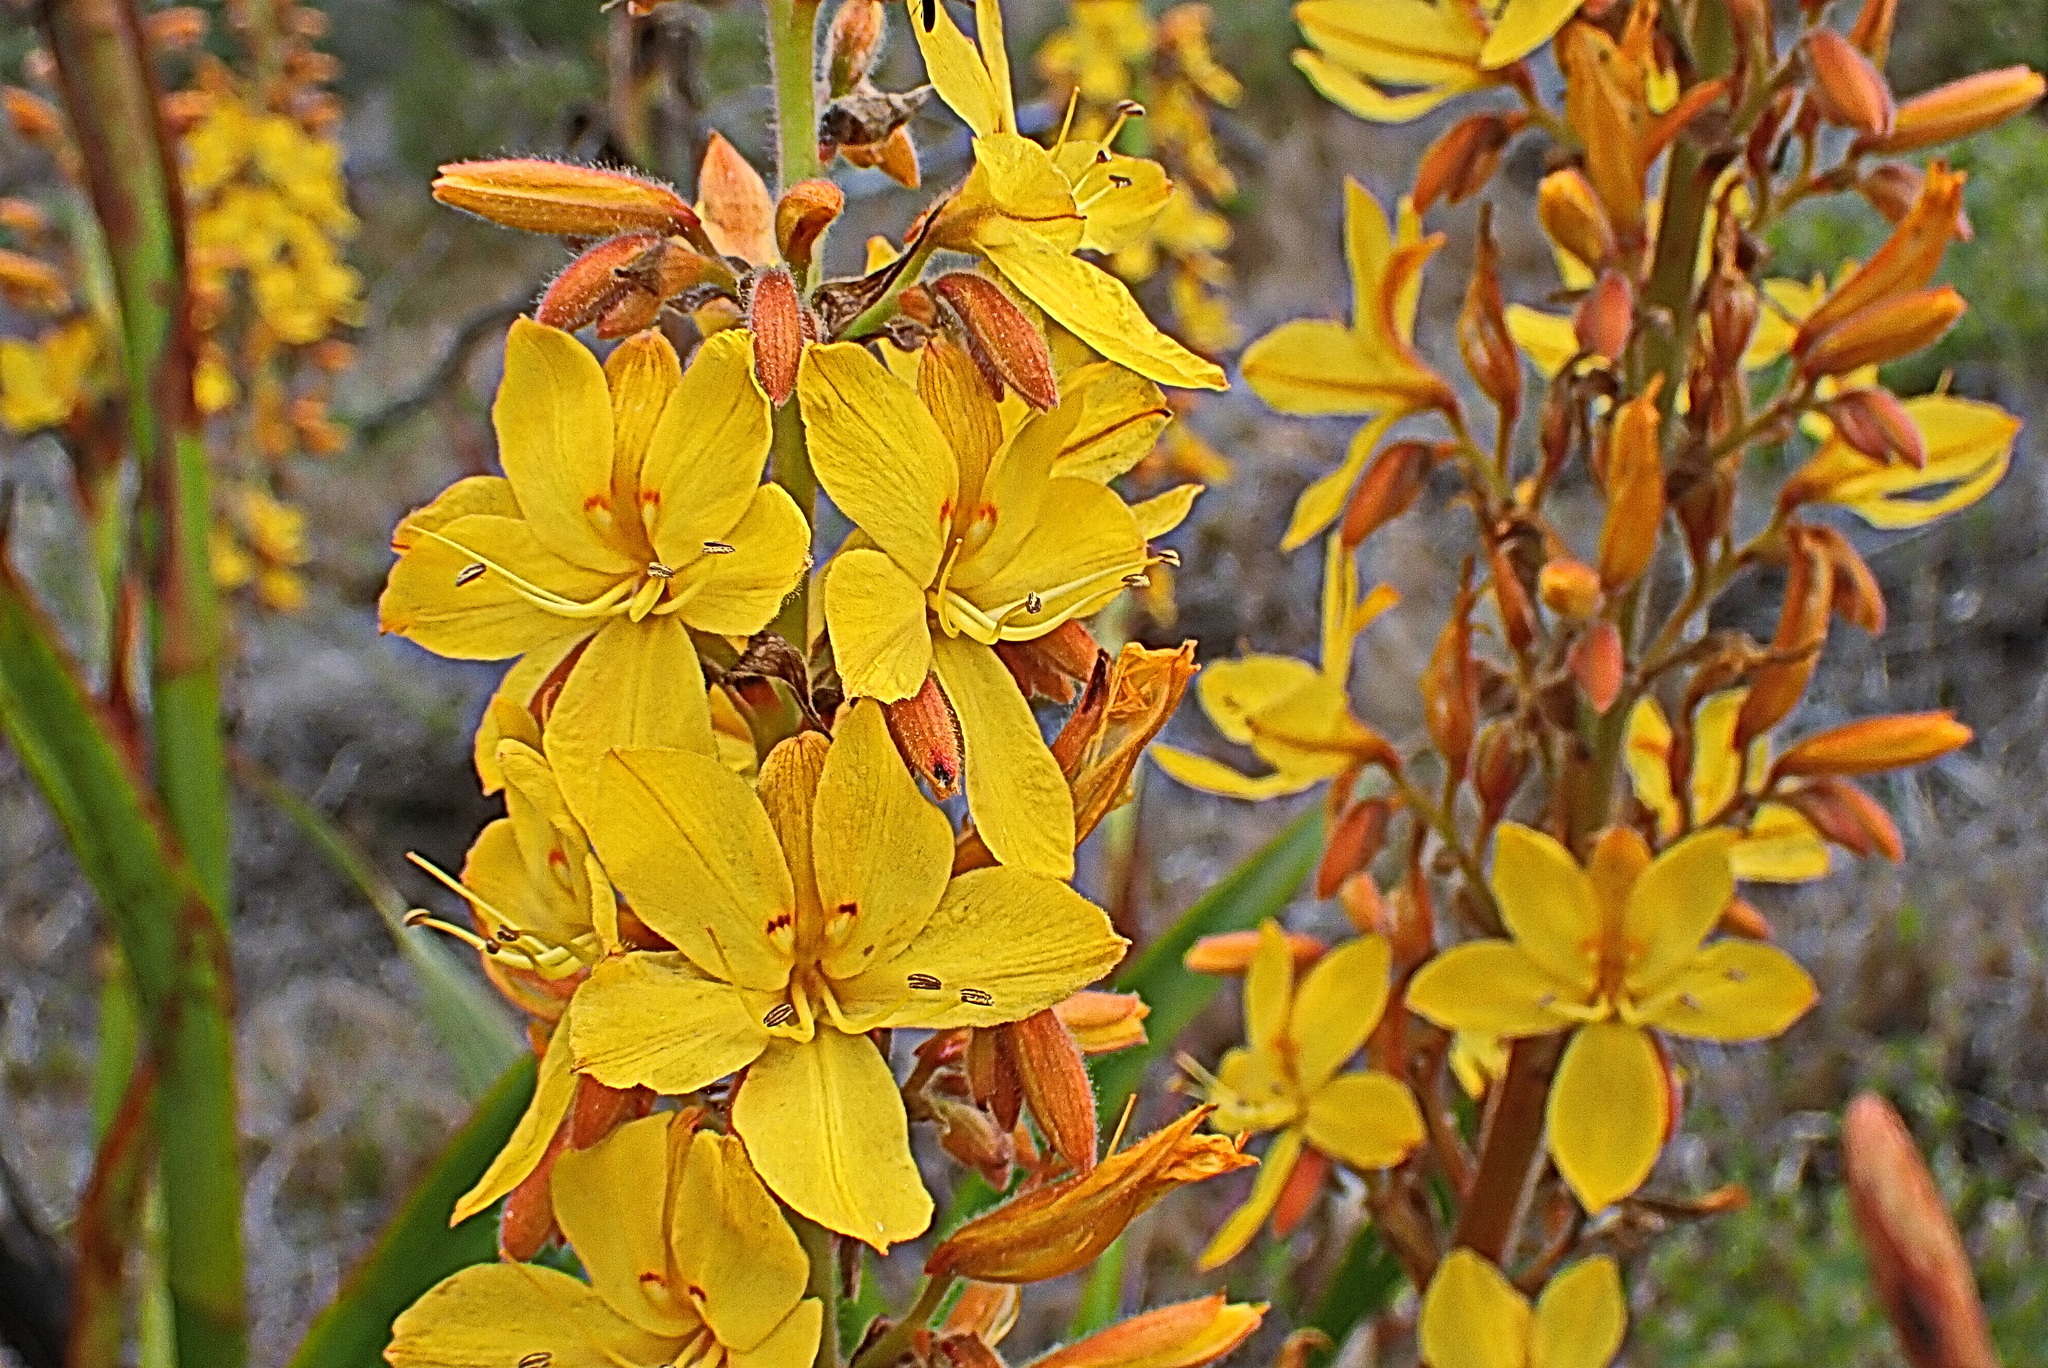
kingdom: Plantae
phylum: Tracheophyta
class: Liliopsida
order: Commelinales
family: Haemodoraceae
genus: Wachendorfia
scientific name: Wachendorfia thyrsiflora
